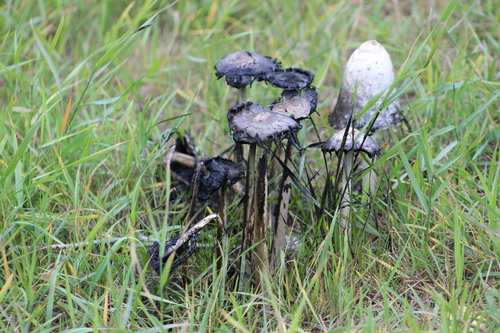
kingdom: Fungi
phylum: Basidiomycota
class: Agaricomycetes
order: Agaricales
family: Agaricaceae
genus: Coprinus
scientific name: Coprinus comatus
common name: Lawyer's wig
